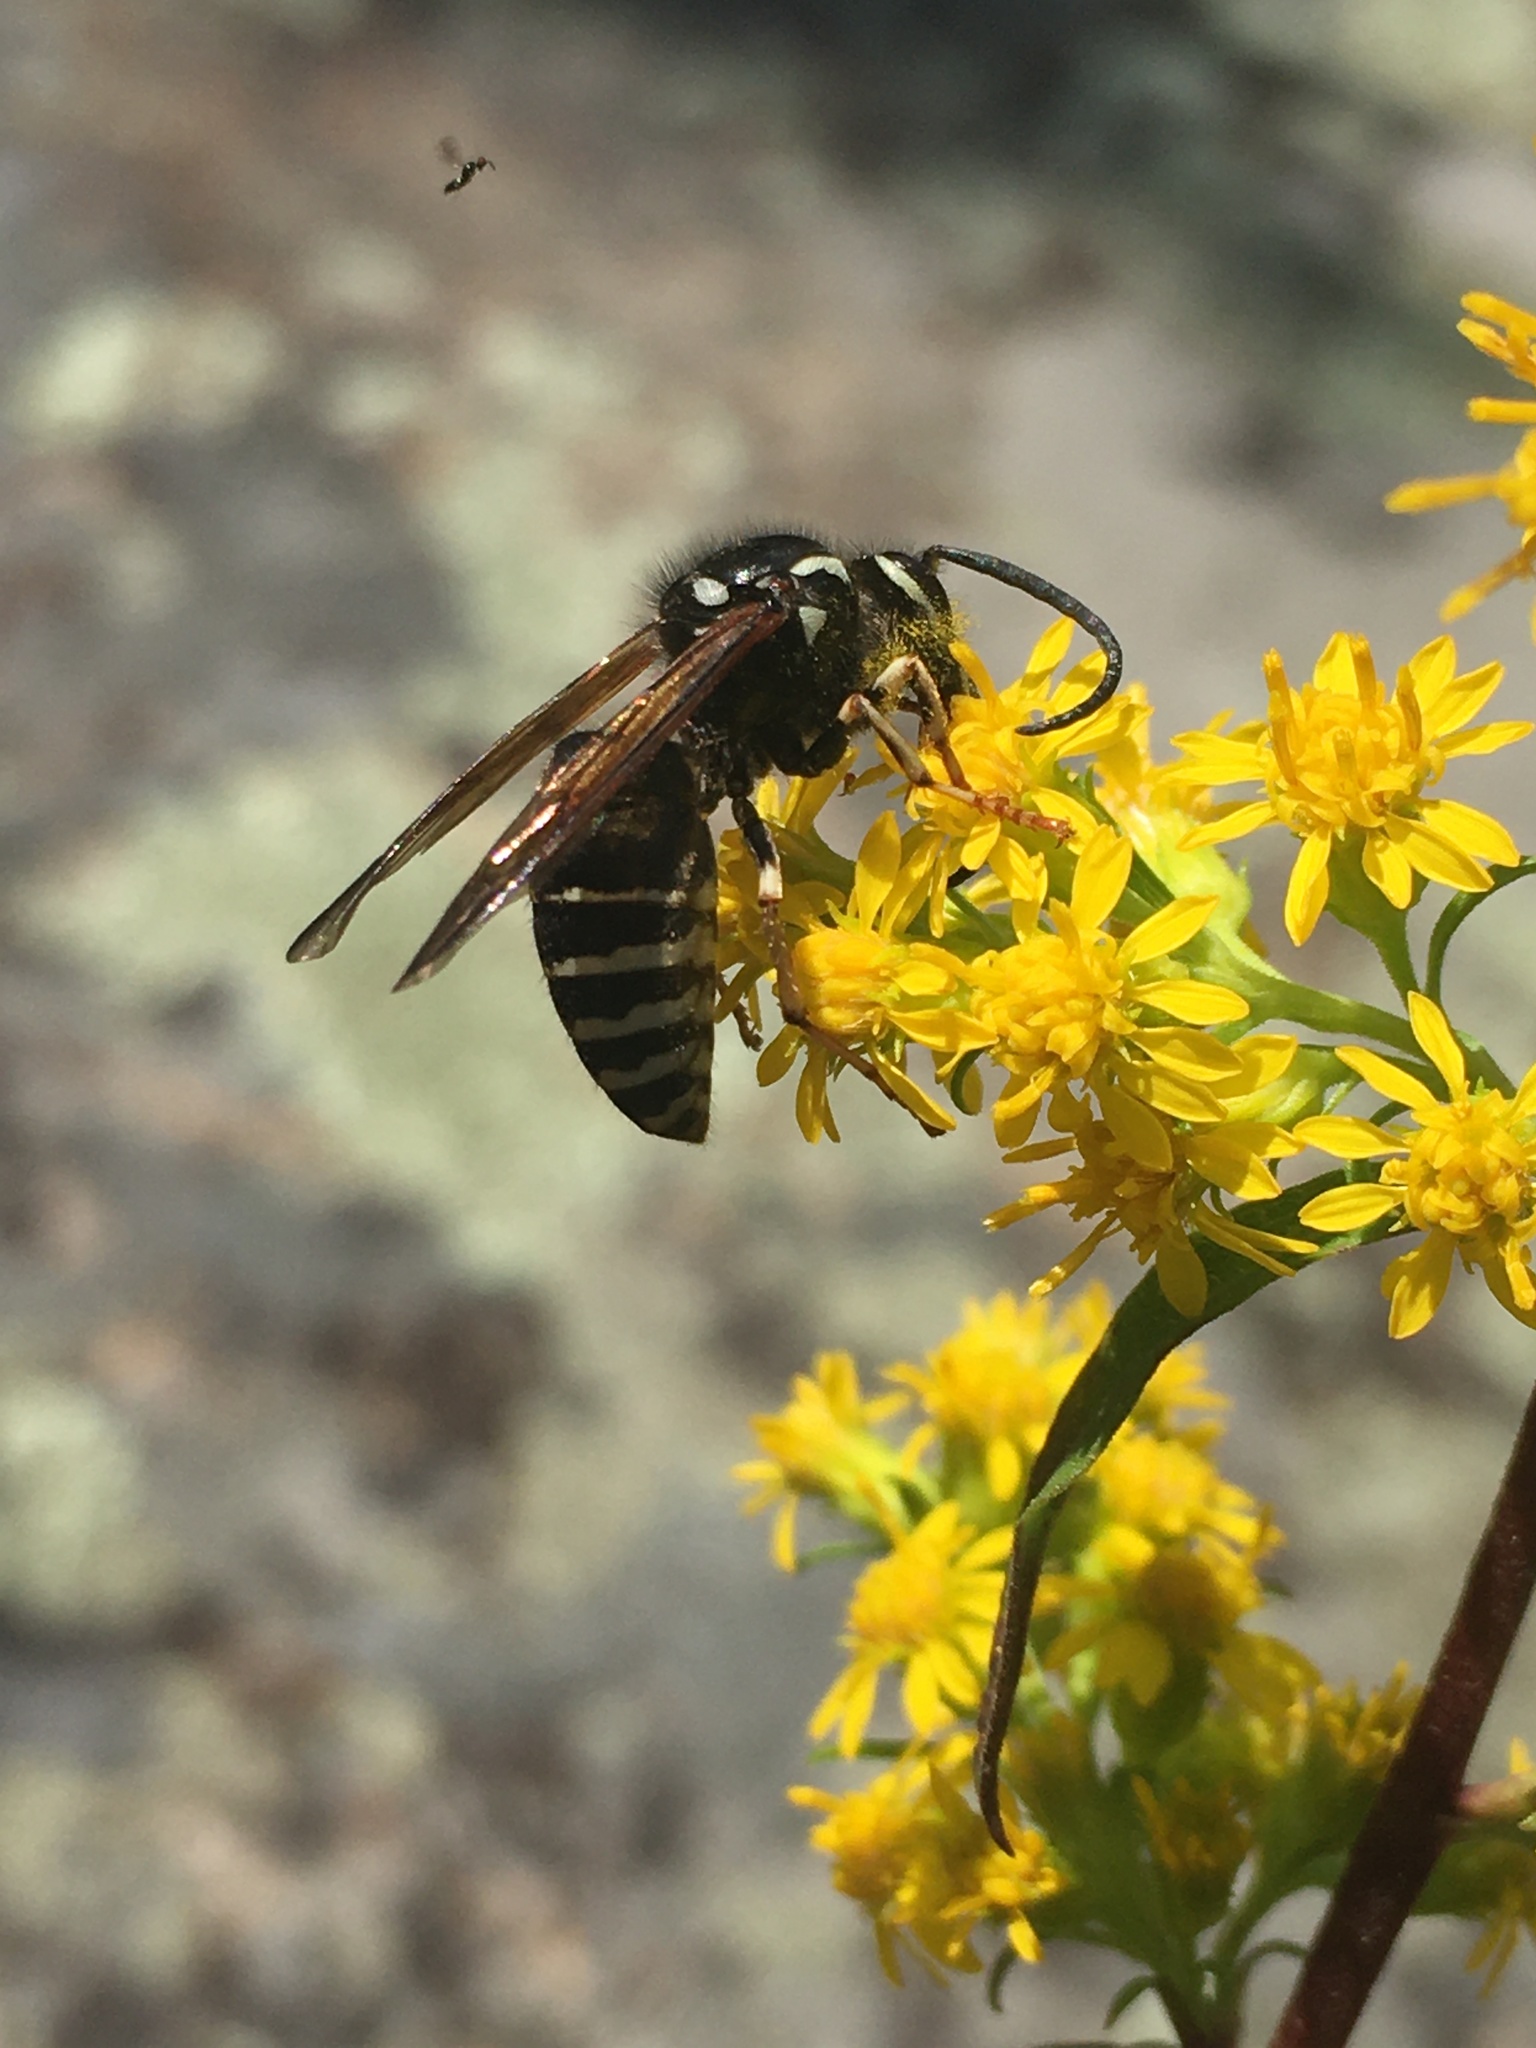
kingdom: Animalia
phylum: Arthropoda
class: Insecta
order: Hymenoptera
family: Vespidae
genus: Dolichovespula
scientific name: Dolichovespula adulterina
